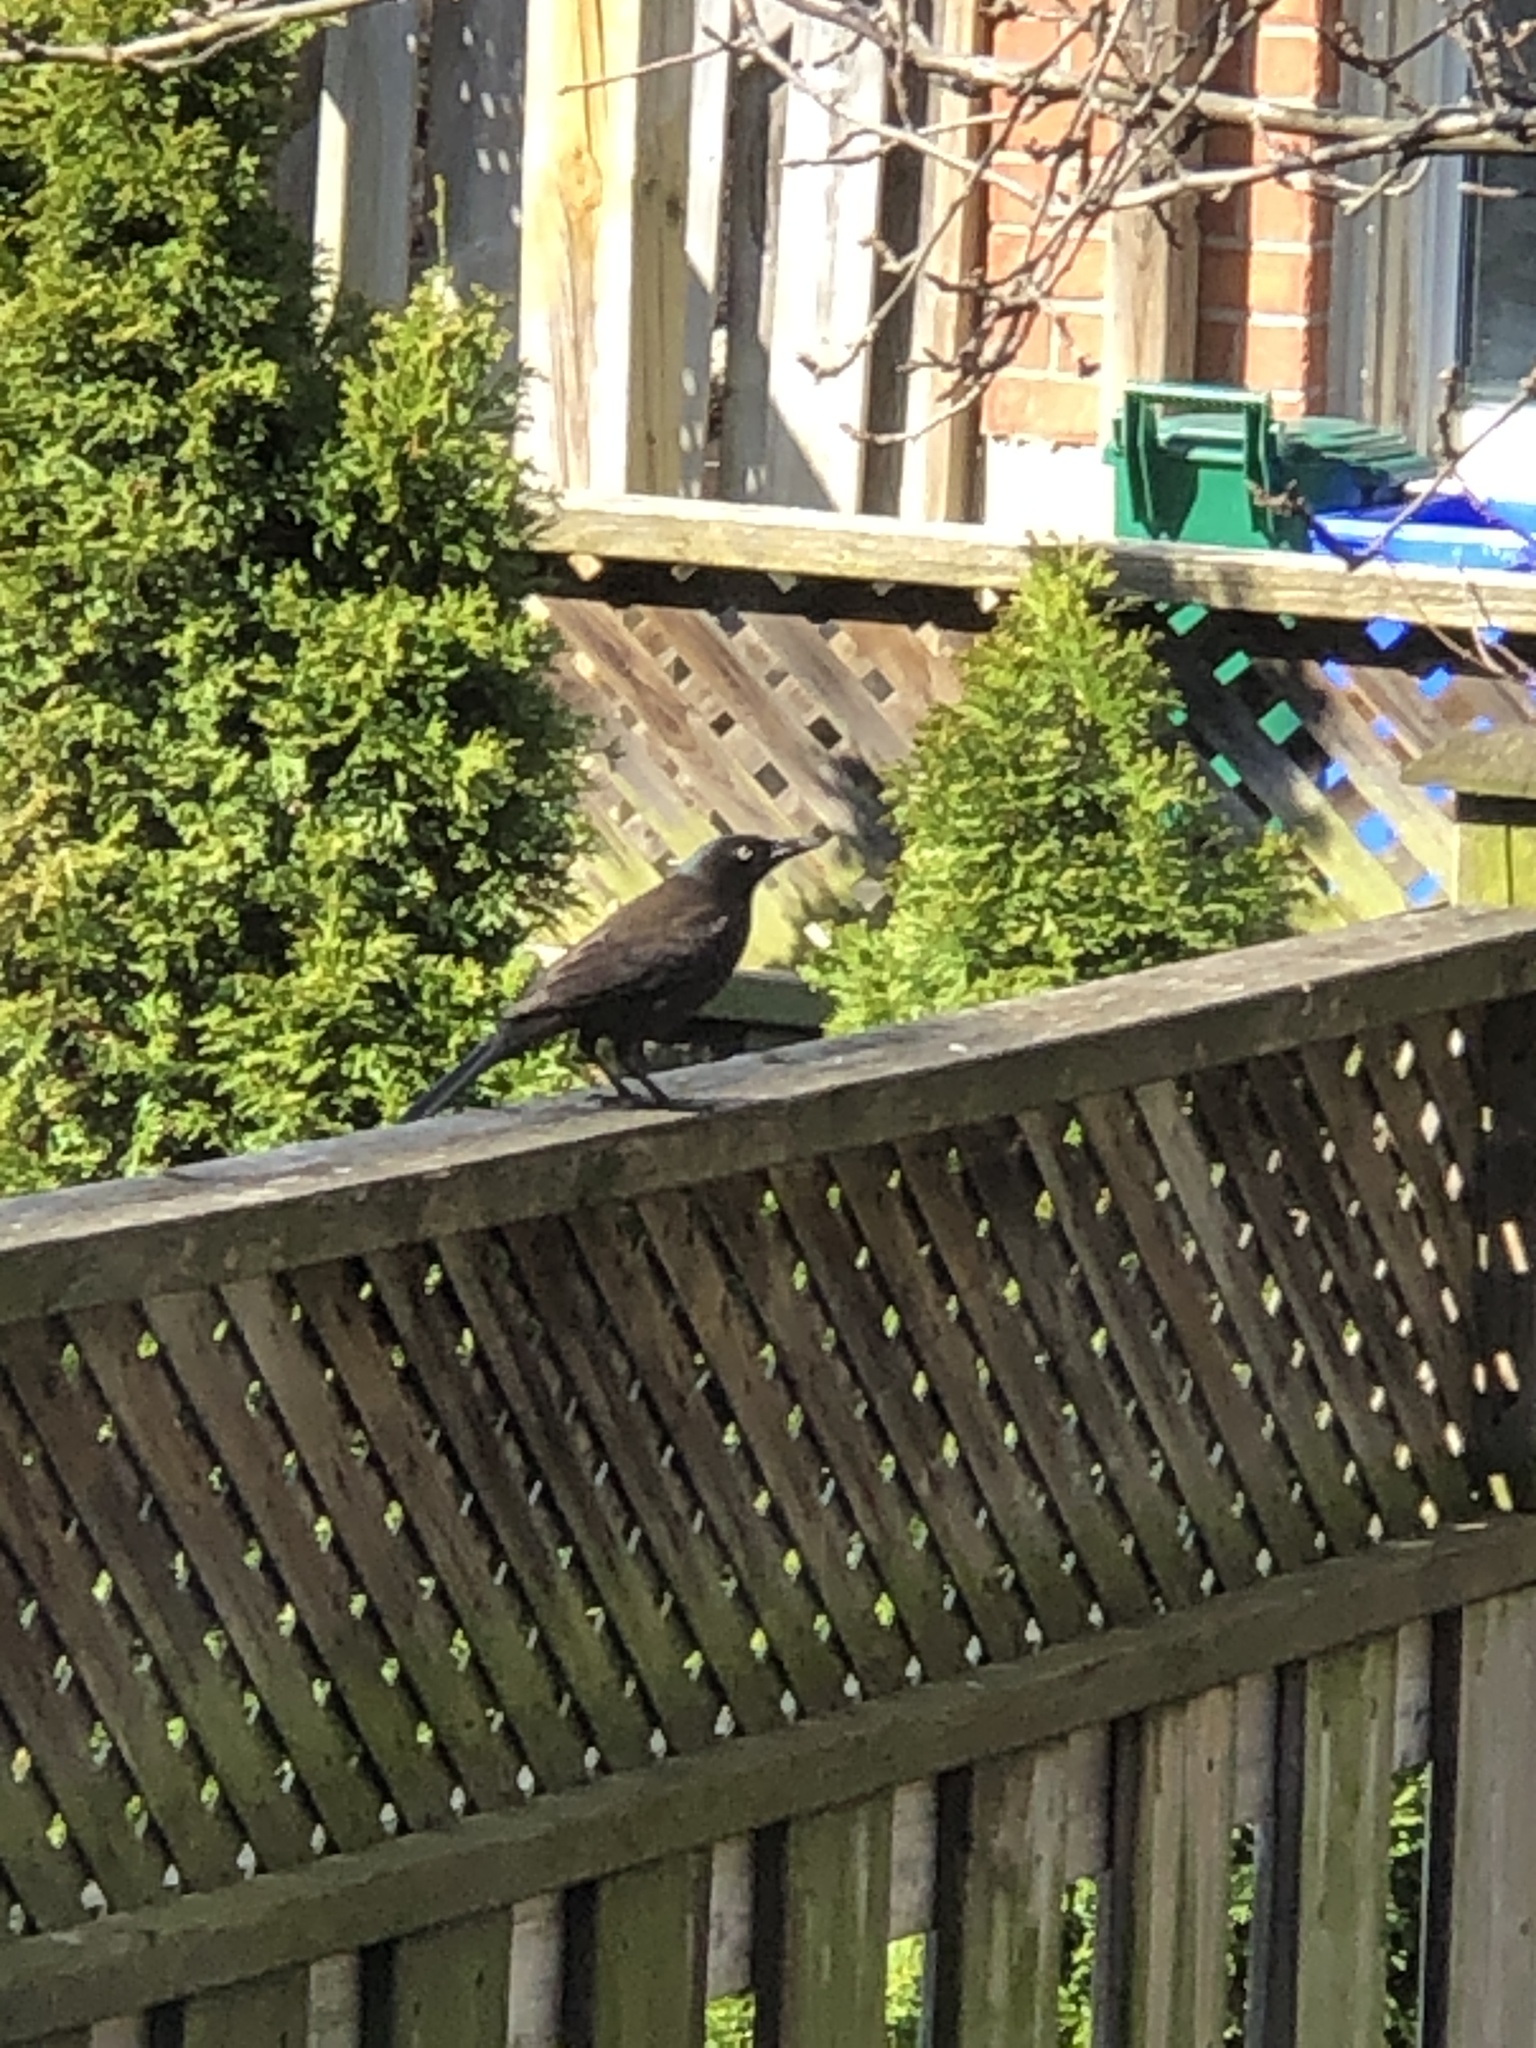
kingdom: Animalia
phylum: Chordata
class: Aves
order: Passeriformes
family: Icteridae
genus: Quiscalus
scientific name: Quiscalus quiscula
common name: Common grackle
